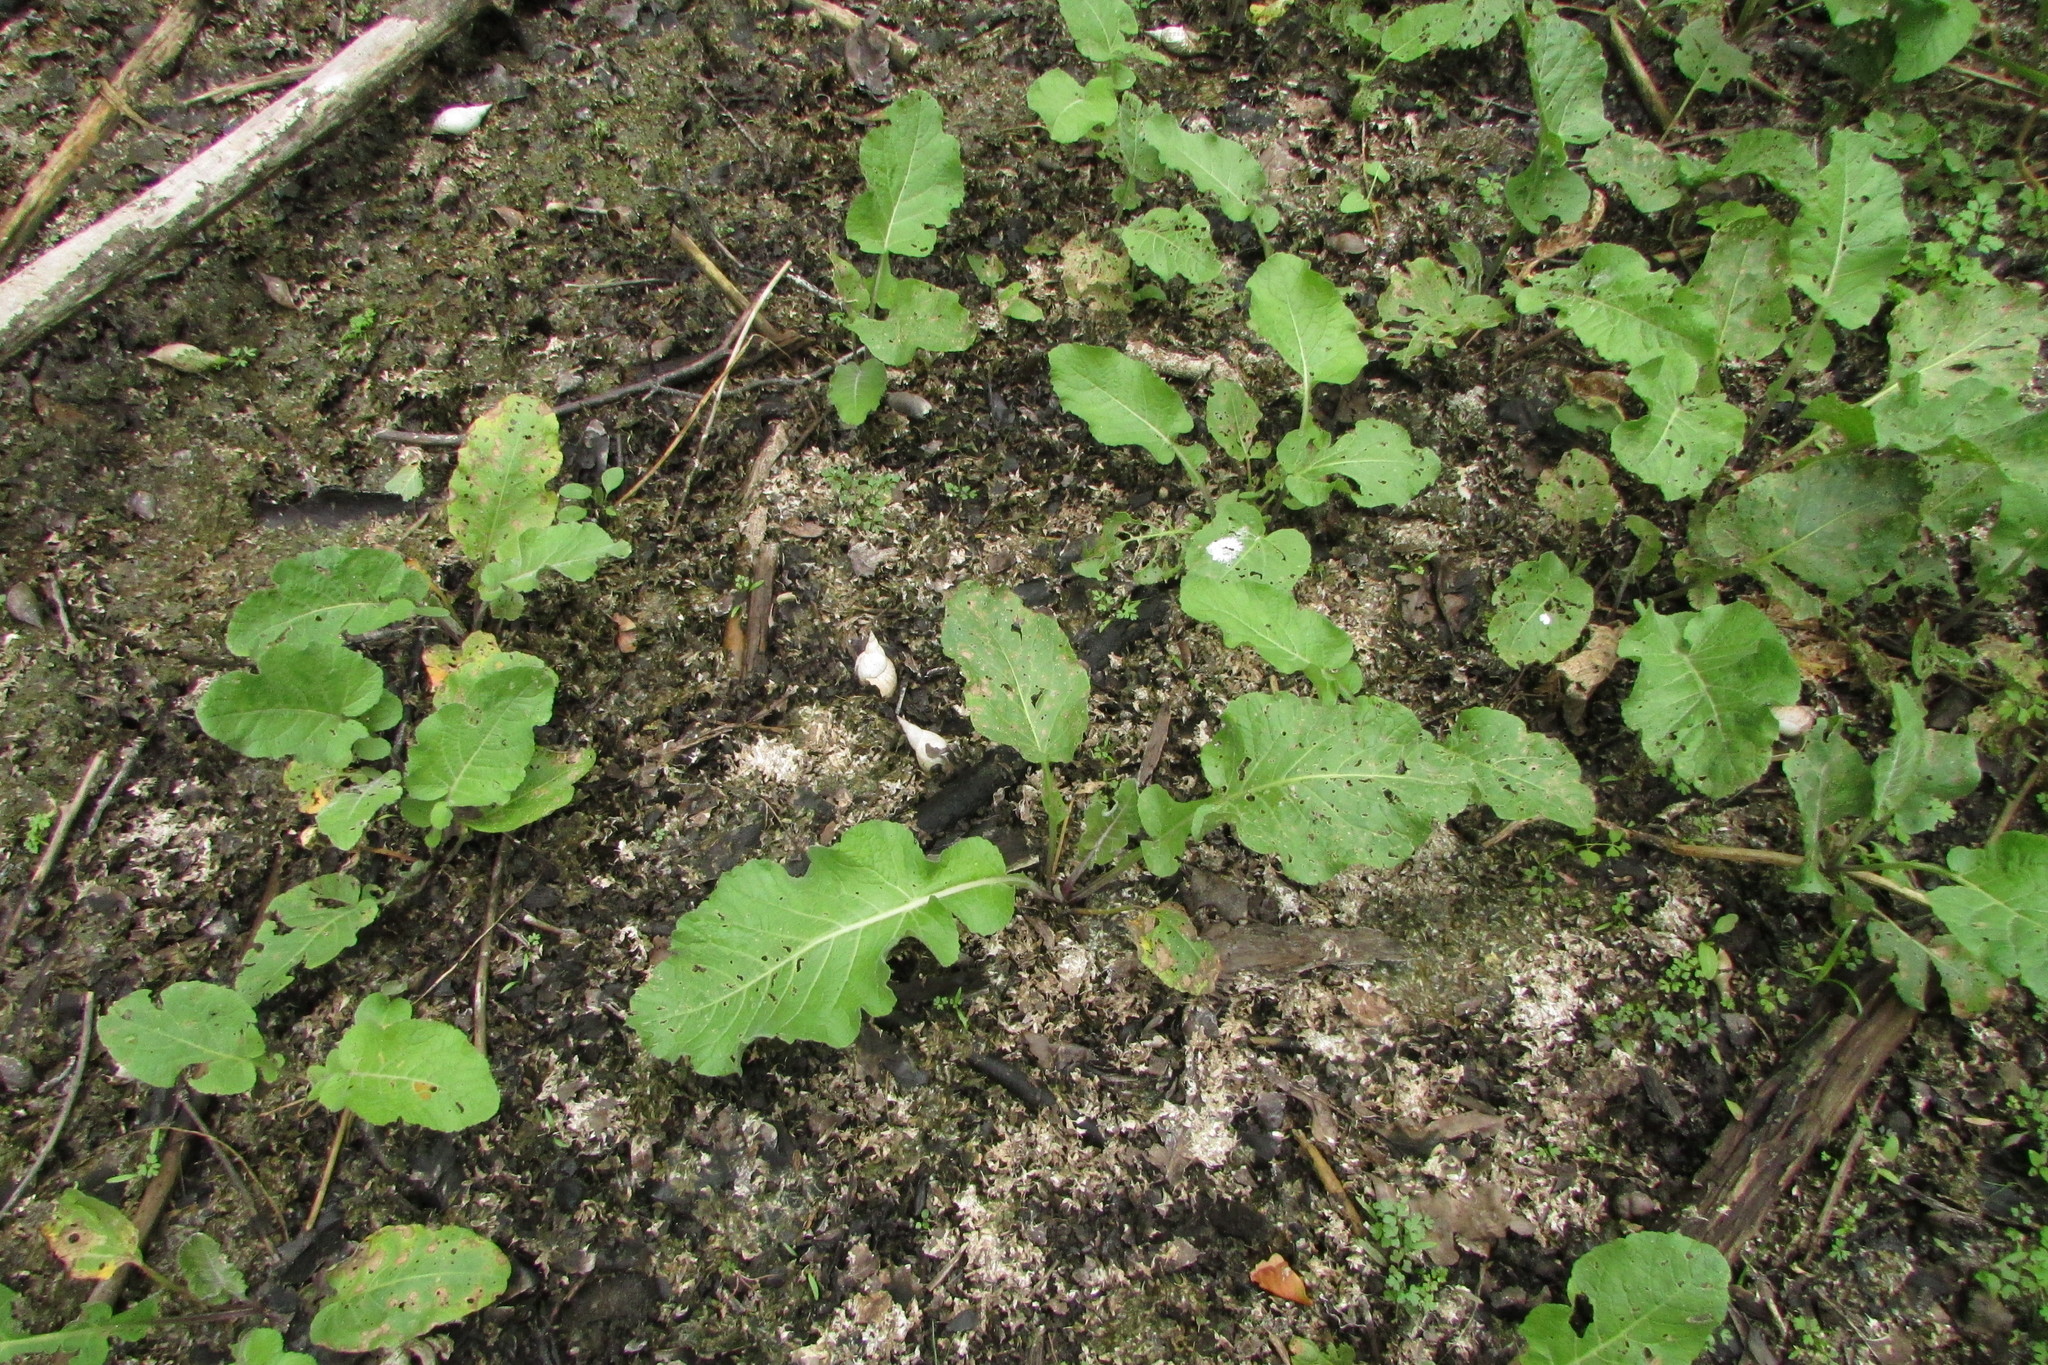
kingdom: Plantae
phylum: Tracheophyta
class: Magnoliopsida
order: Brassicales
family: Brassicaceae
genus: Rorippa
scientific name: Rorippa amphibia
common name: Great yellow-cress
